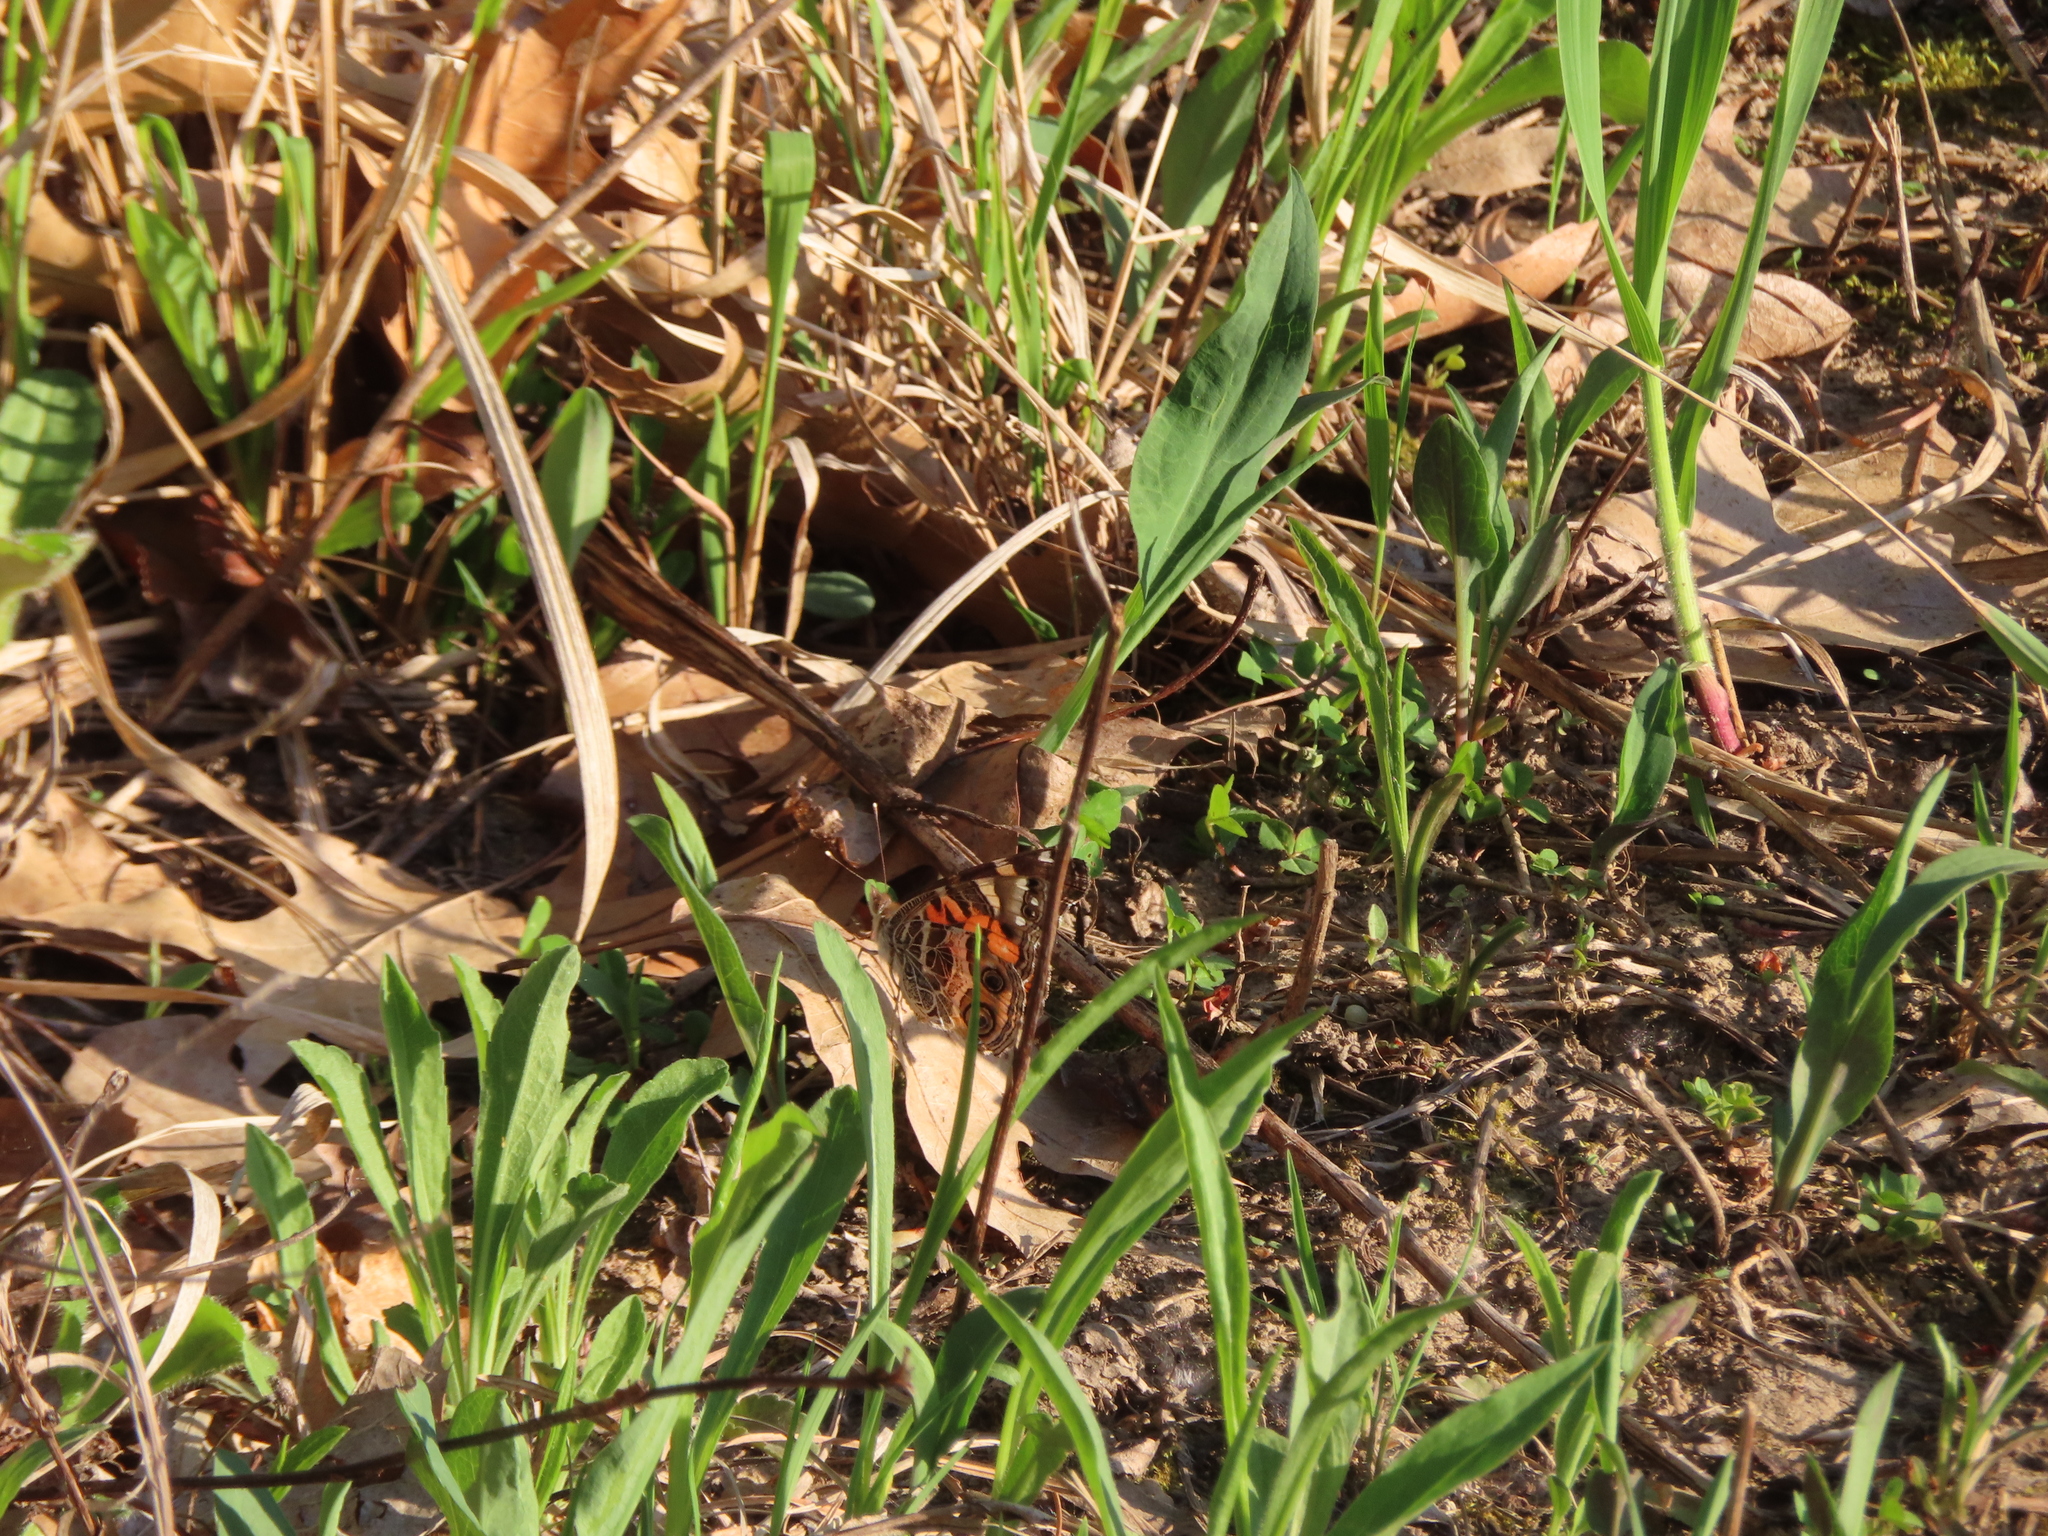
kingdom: Animalia
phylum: Arthropoda
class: Insecta
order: Lepidoptera
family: Nymphalidae
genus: Vanessa
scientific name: Vanessa virginiensis
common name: American lady
